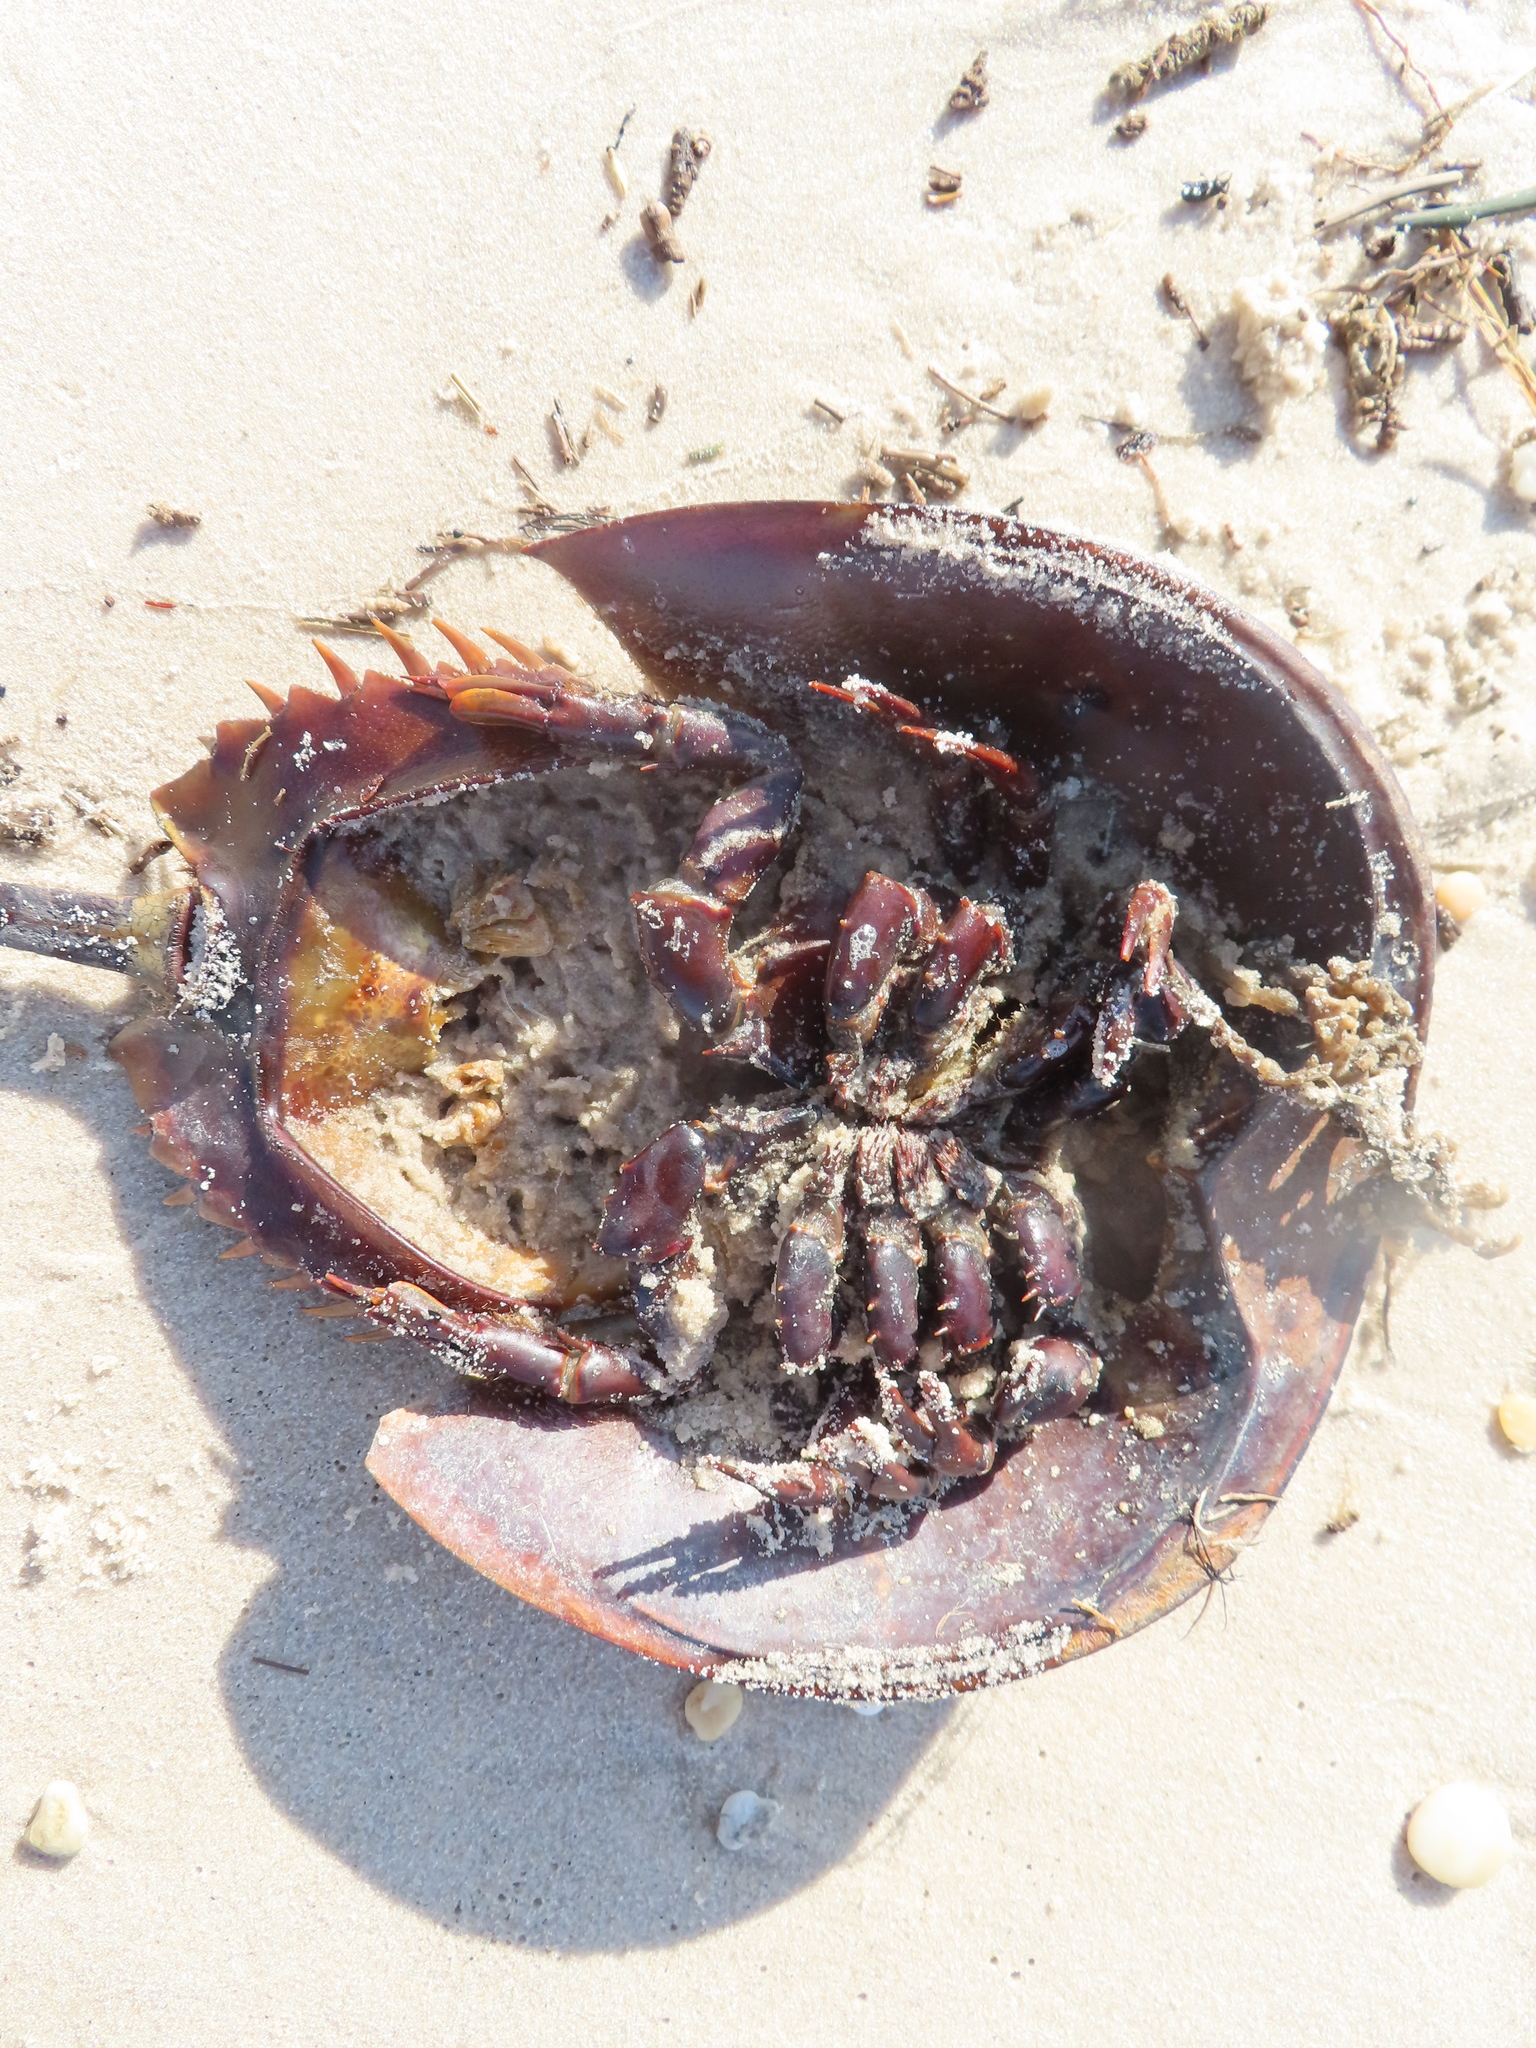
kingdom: Animalia
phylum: Arthropoda
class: Merostomata
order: Xiphosurida
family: Limulidae
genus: Limulus
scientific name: Limulus polyphemus
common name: Horseshoe crab
